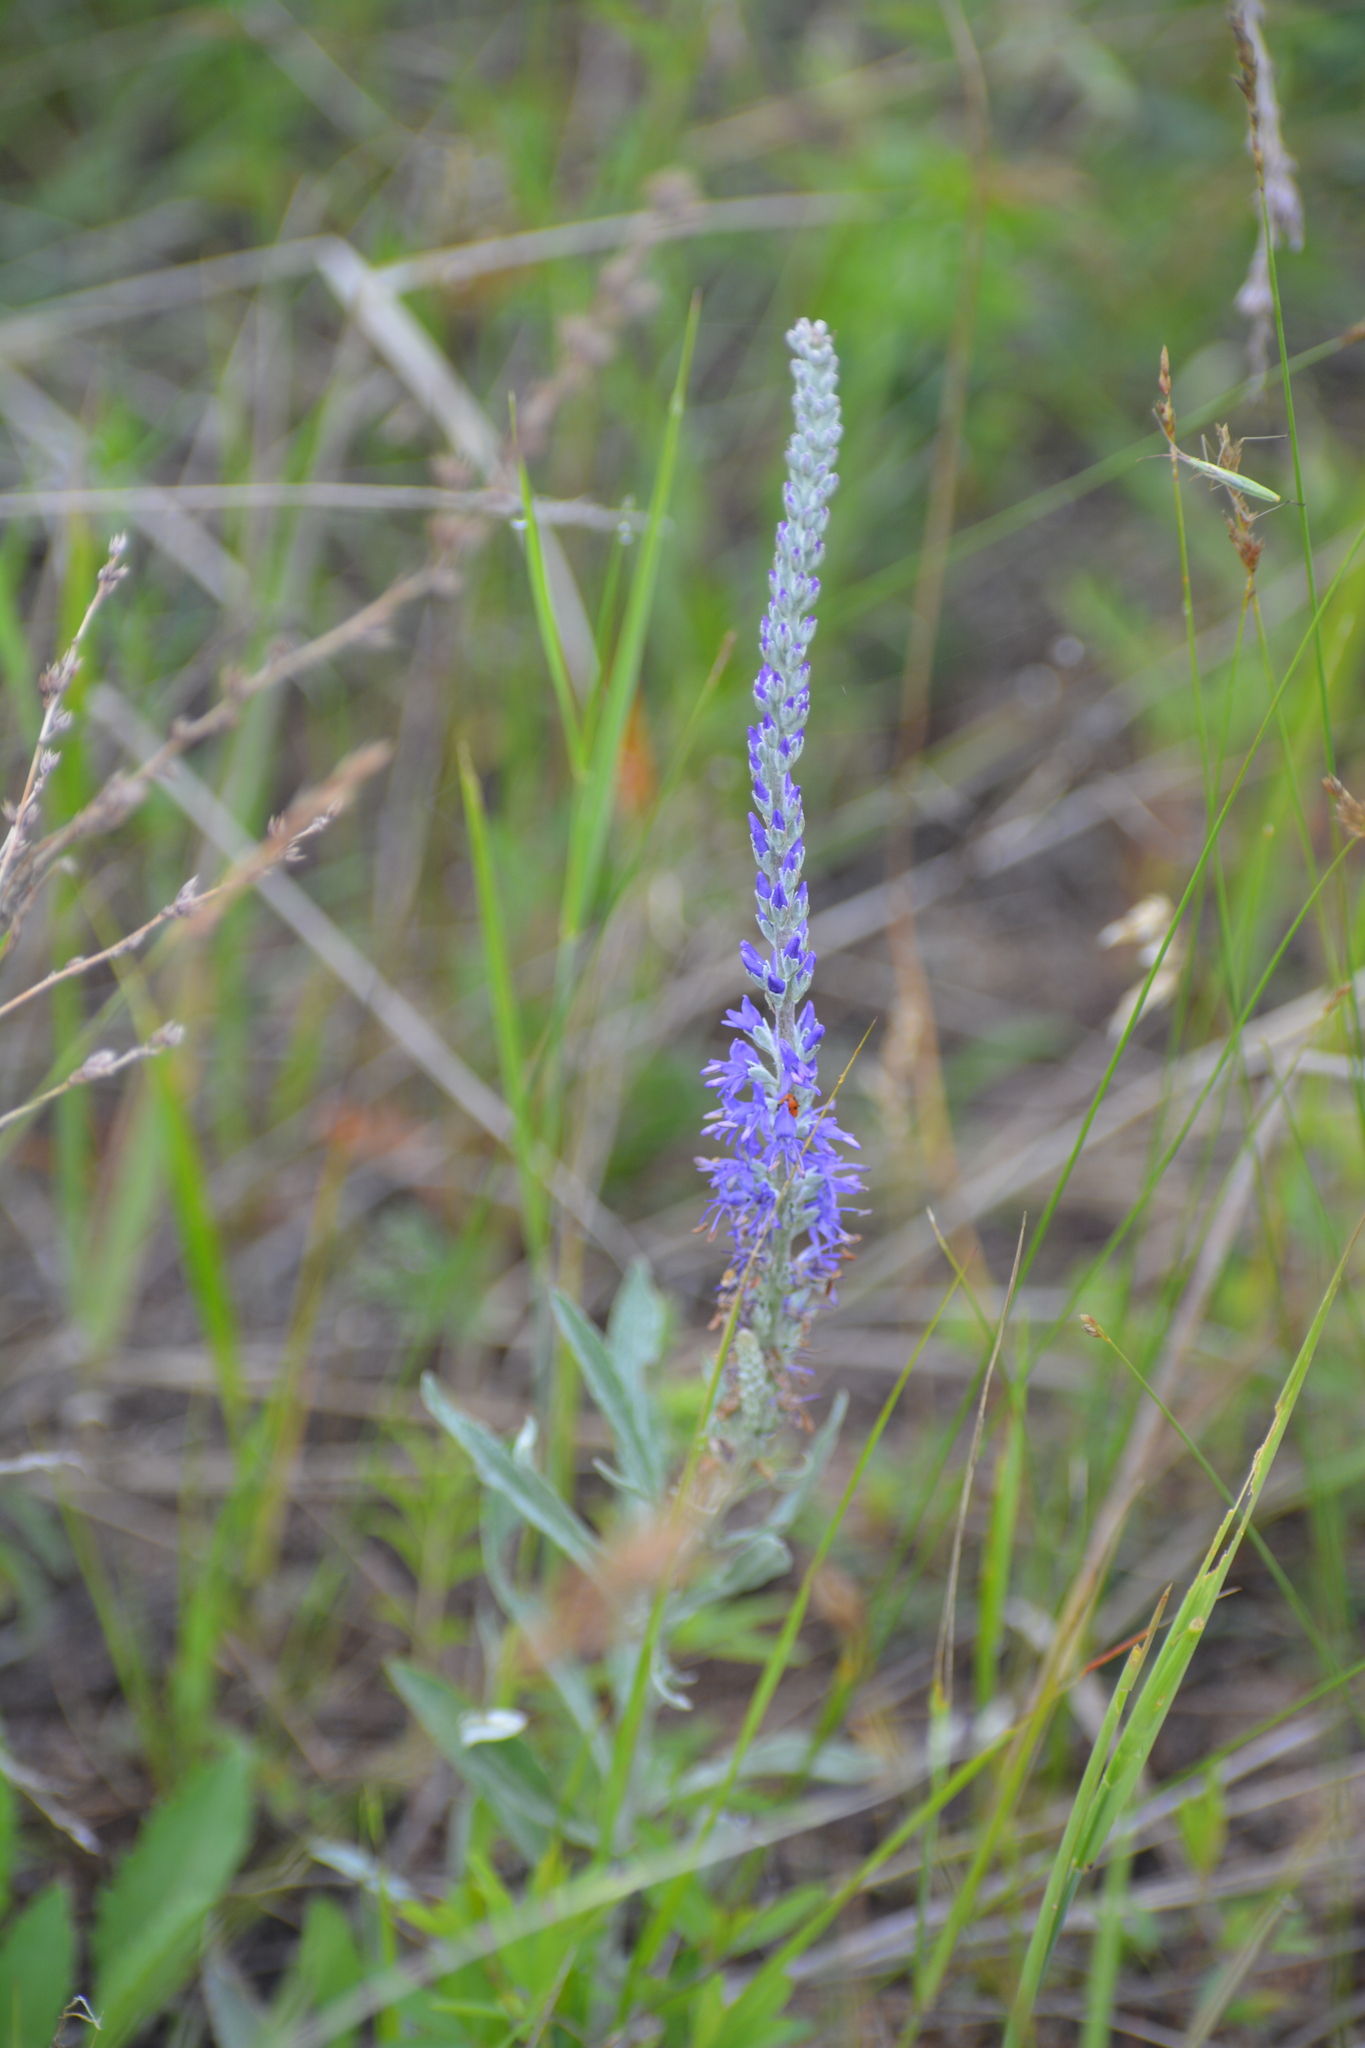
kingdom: Plantae
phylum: Tracheophyta
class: Magnoliopsida
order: Lamiales
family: Plantaginaceae
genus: Veronica
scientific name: Veronica incana
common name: Silver speedwell
